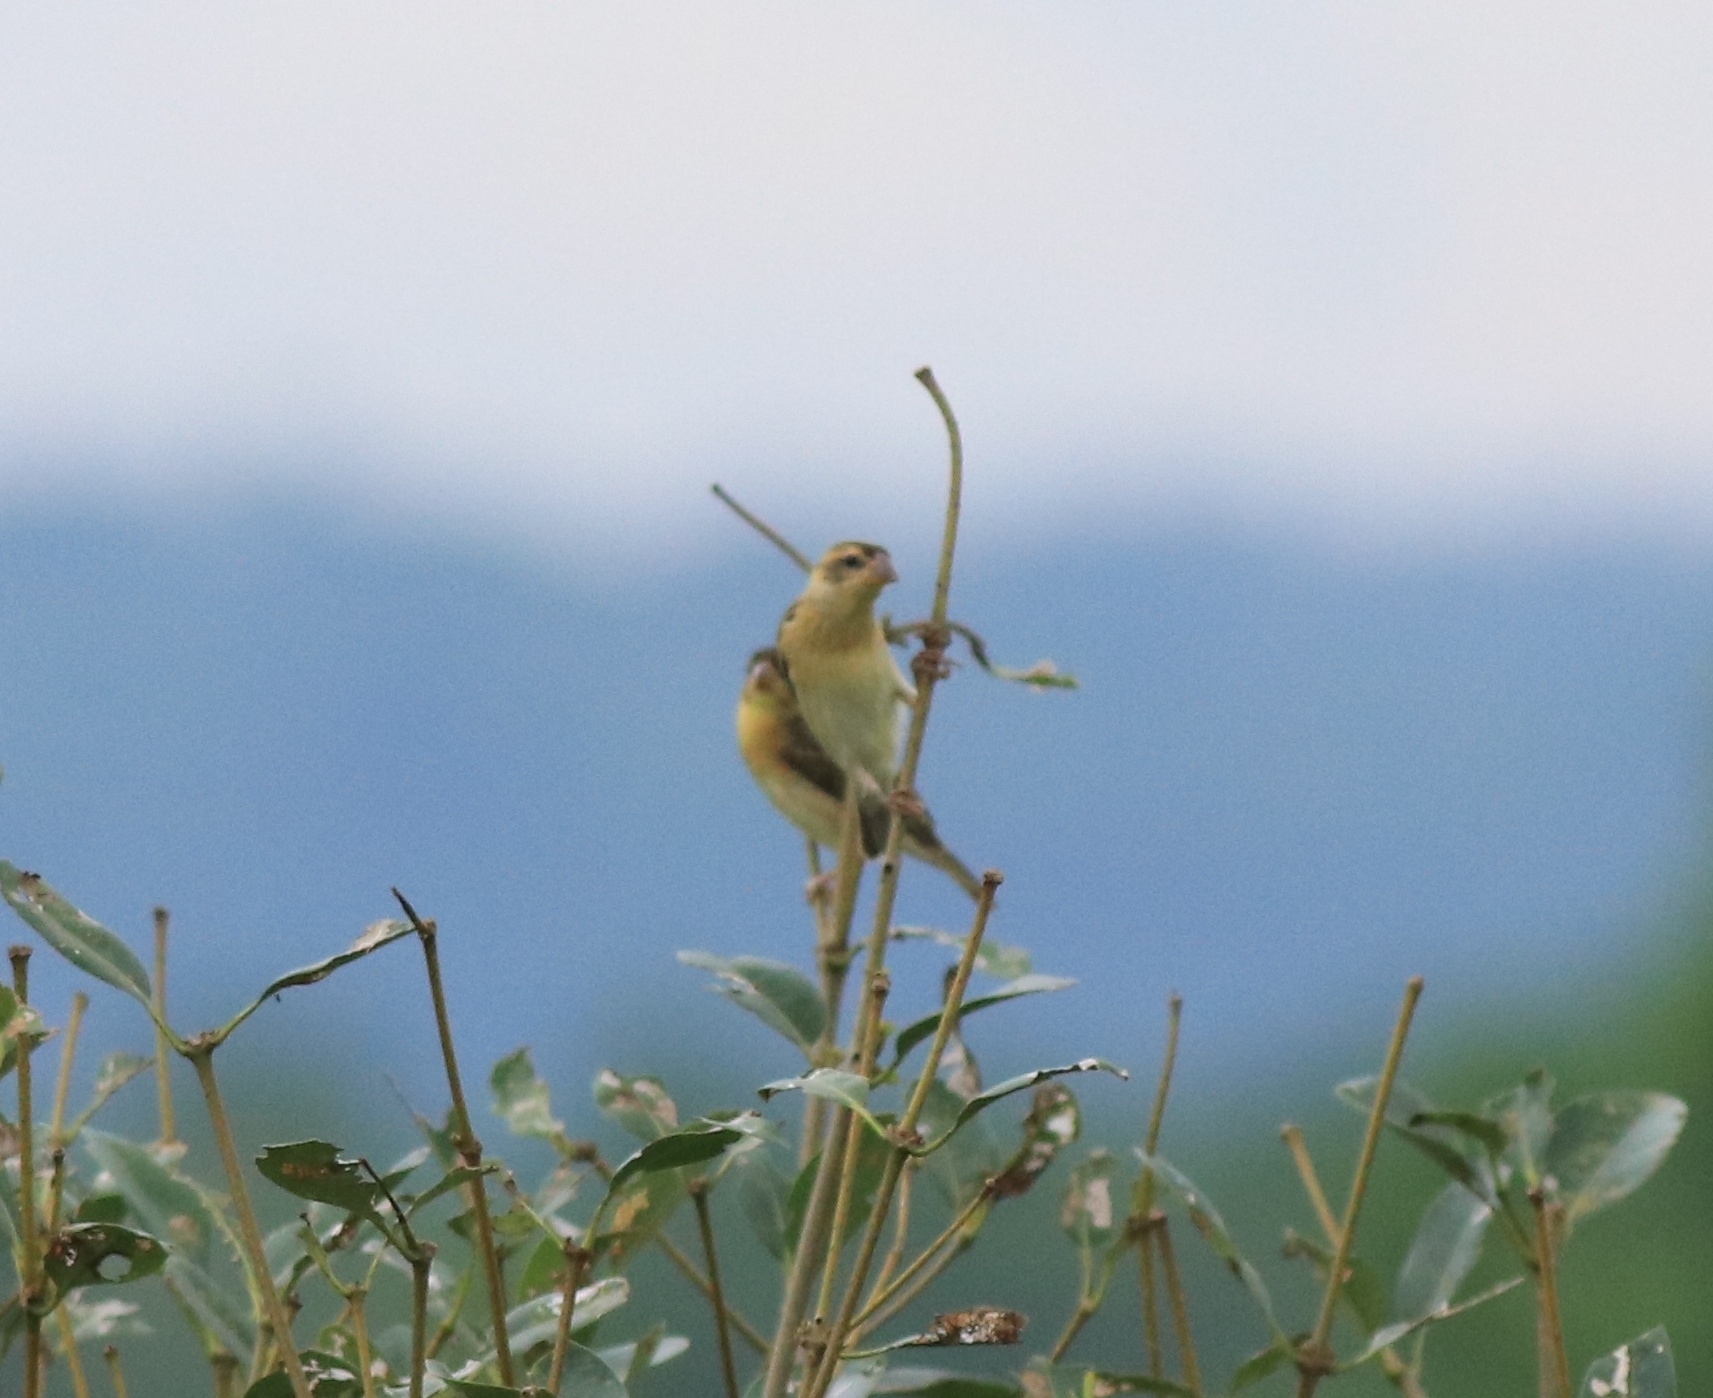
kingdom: Animalia
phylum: Chordata
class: Aves
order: Passeriformes
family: Ploceidae
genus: Ploceus
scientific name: Ploceus philippinus
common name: Baya weaver
